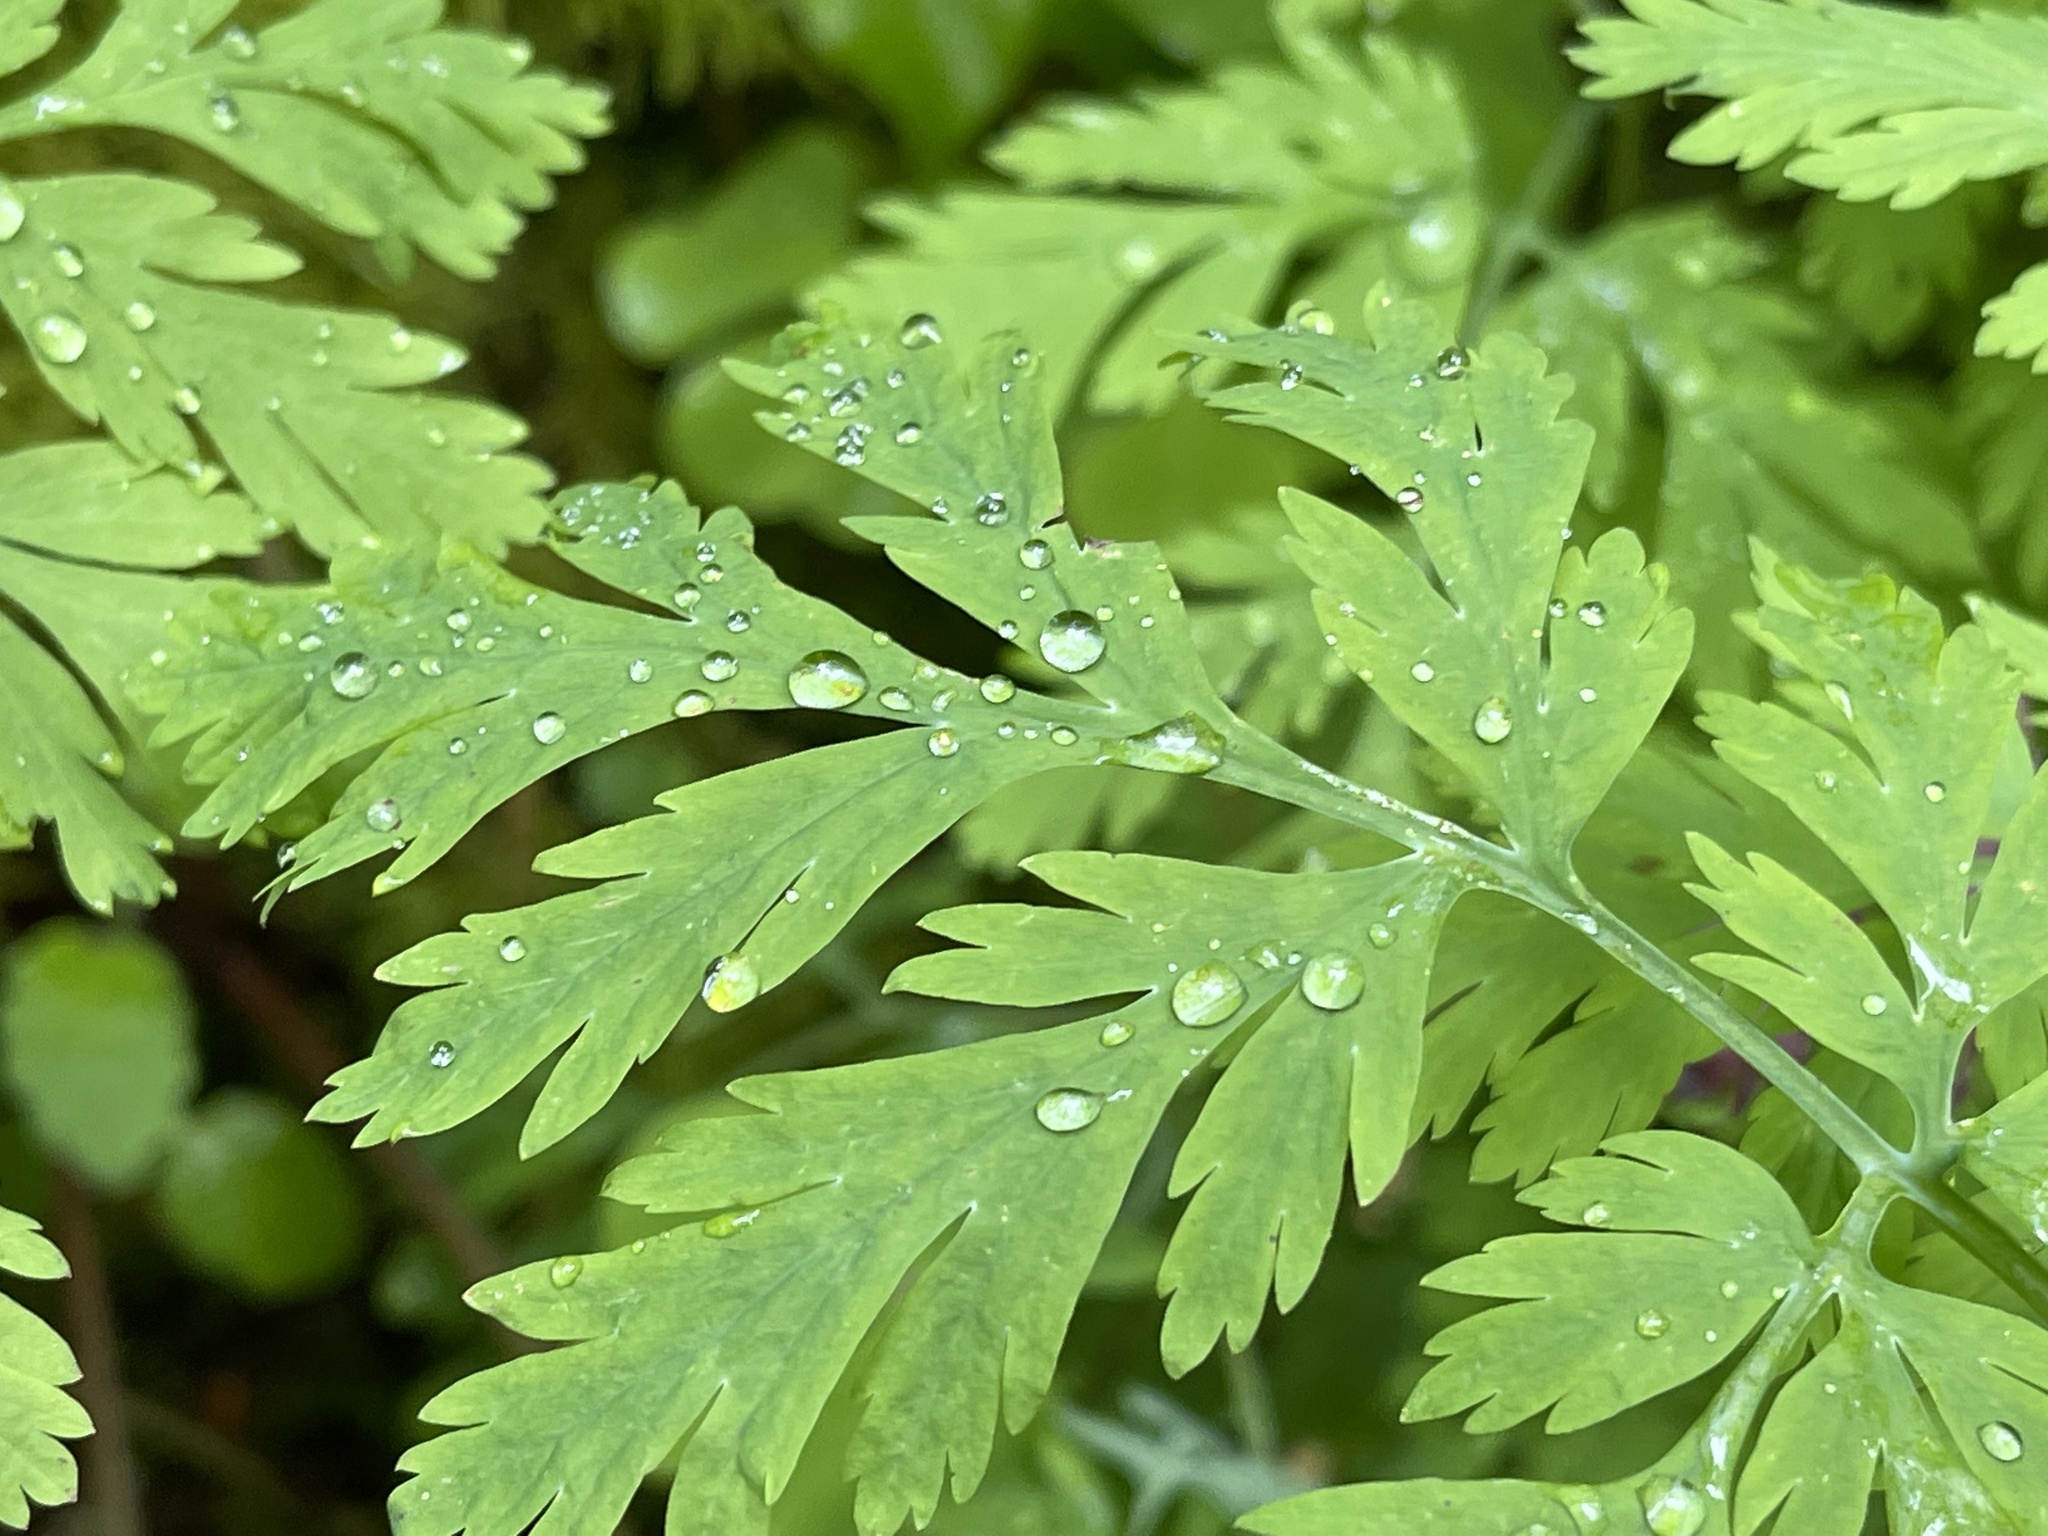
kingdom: Plantae
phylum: Tracheophyta
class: Magnoliopsida
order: Ranunculales
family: Papaveraceae
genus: Dicentra
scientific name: Dicentra formosa
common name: Bleeding-heart
